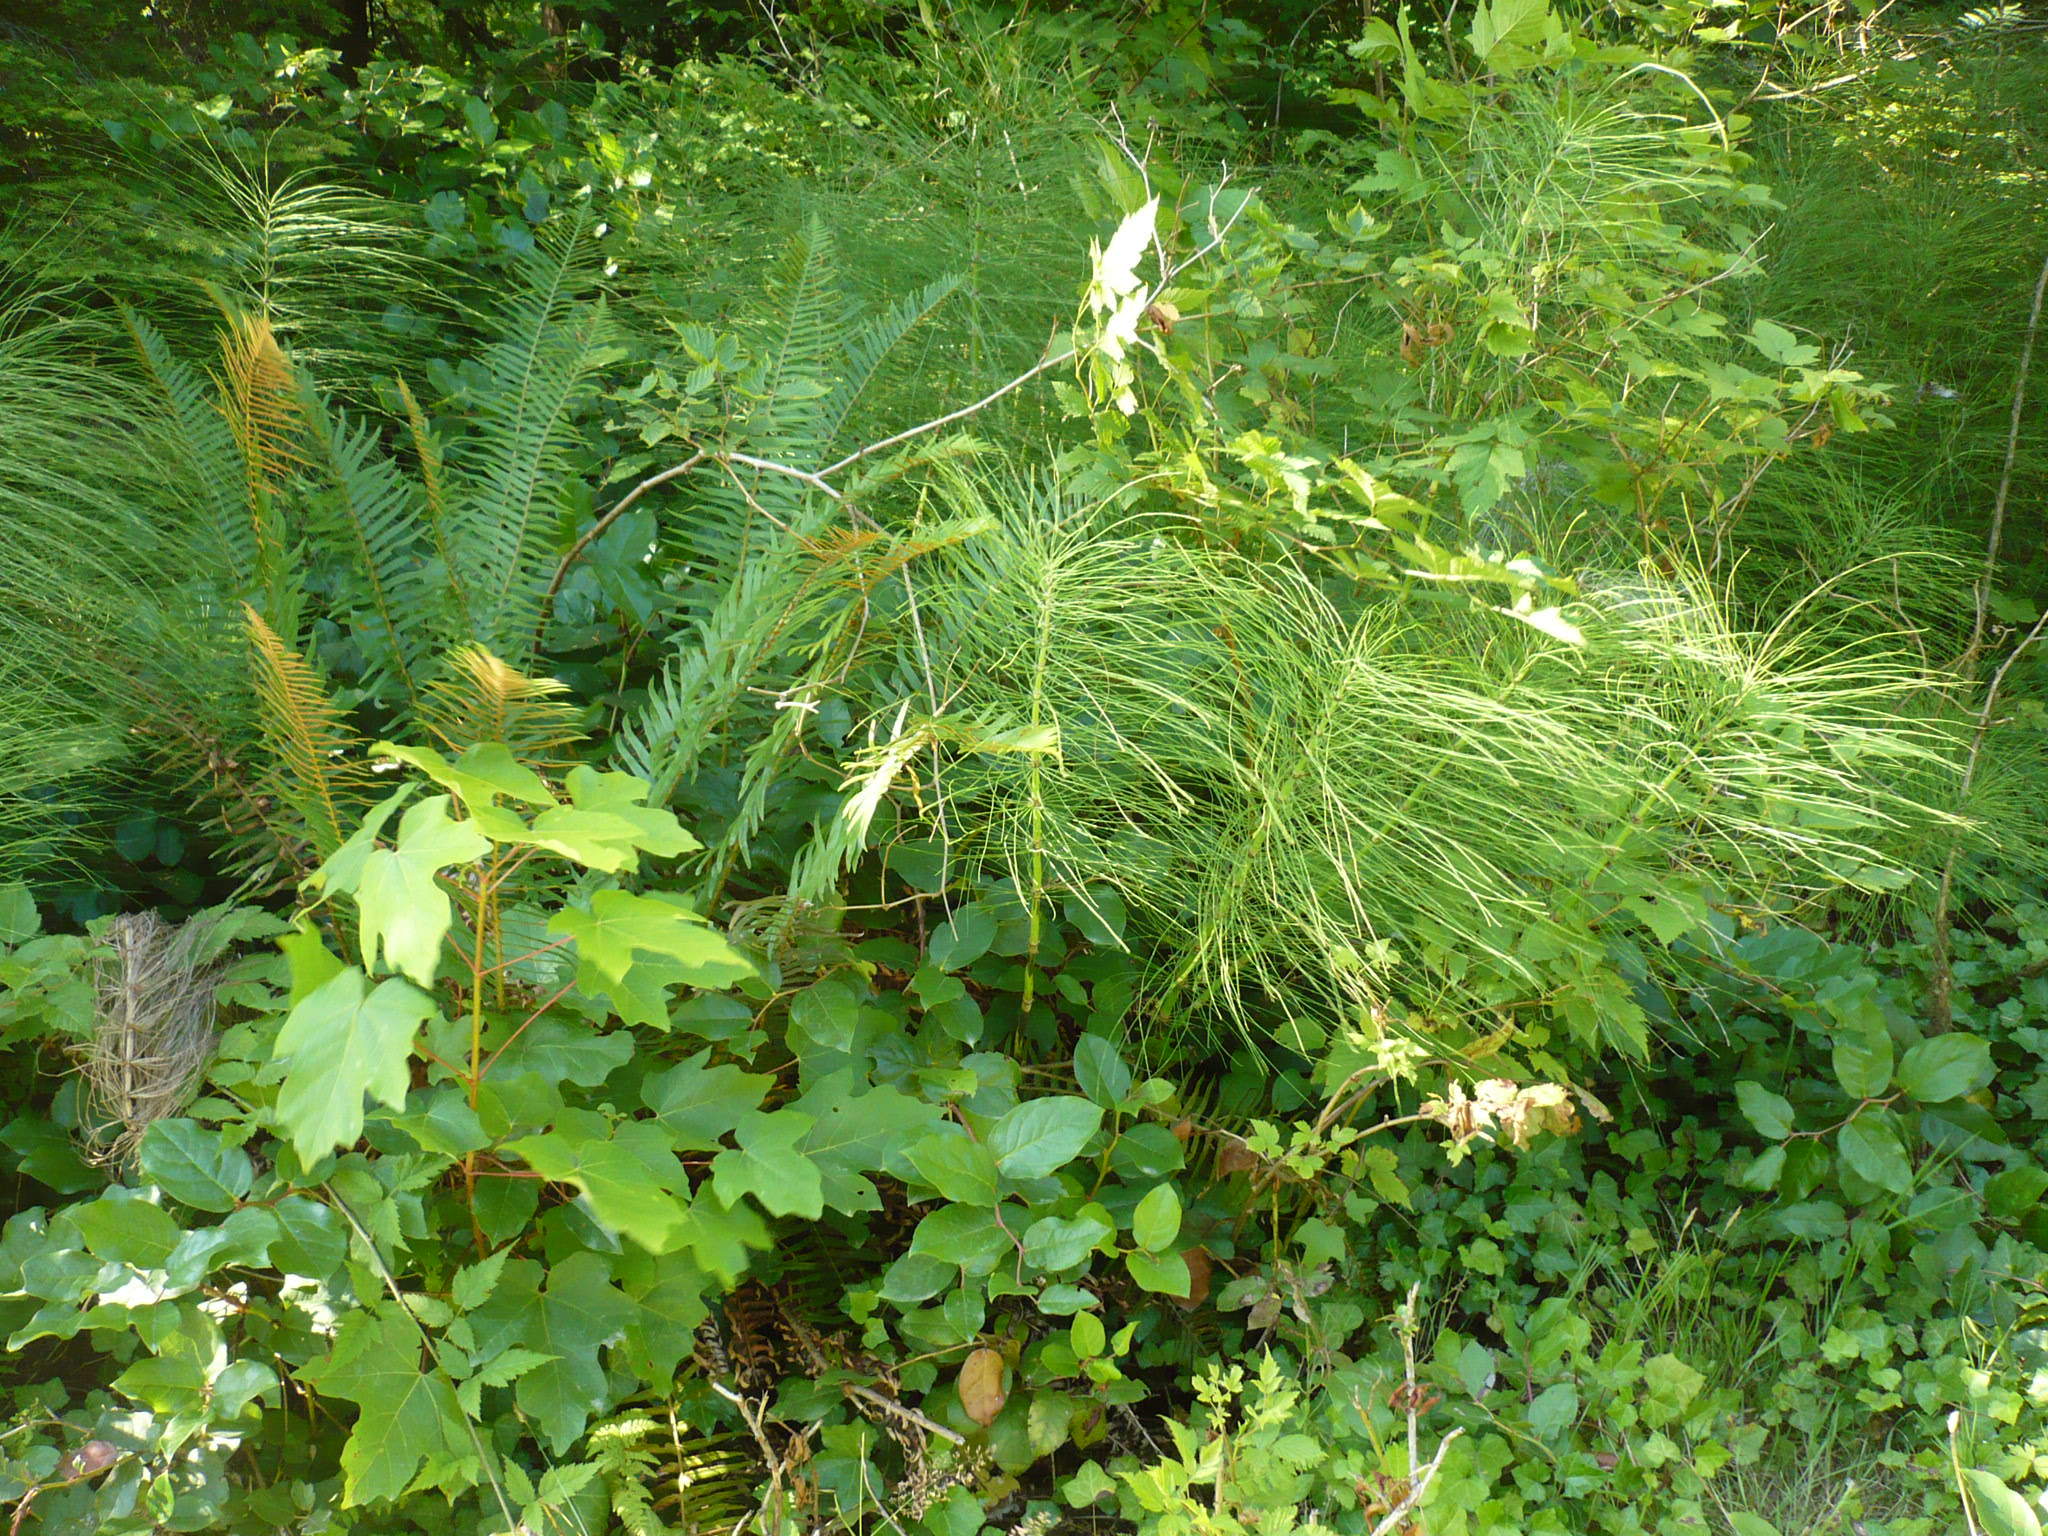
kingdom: Plantae
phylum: Tracheophyta
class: Polypodiopsida
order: Equisetales
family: Equisetaceae
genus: Equisetum
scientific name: Equisetum telmateia
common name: Great horsetail
